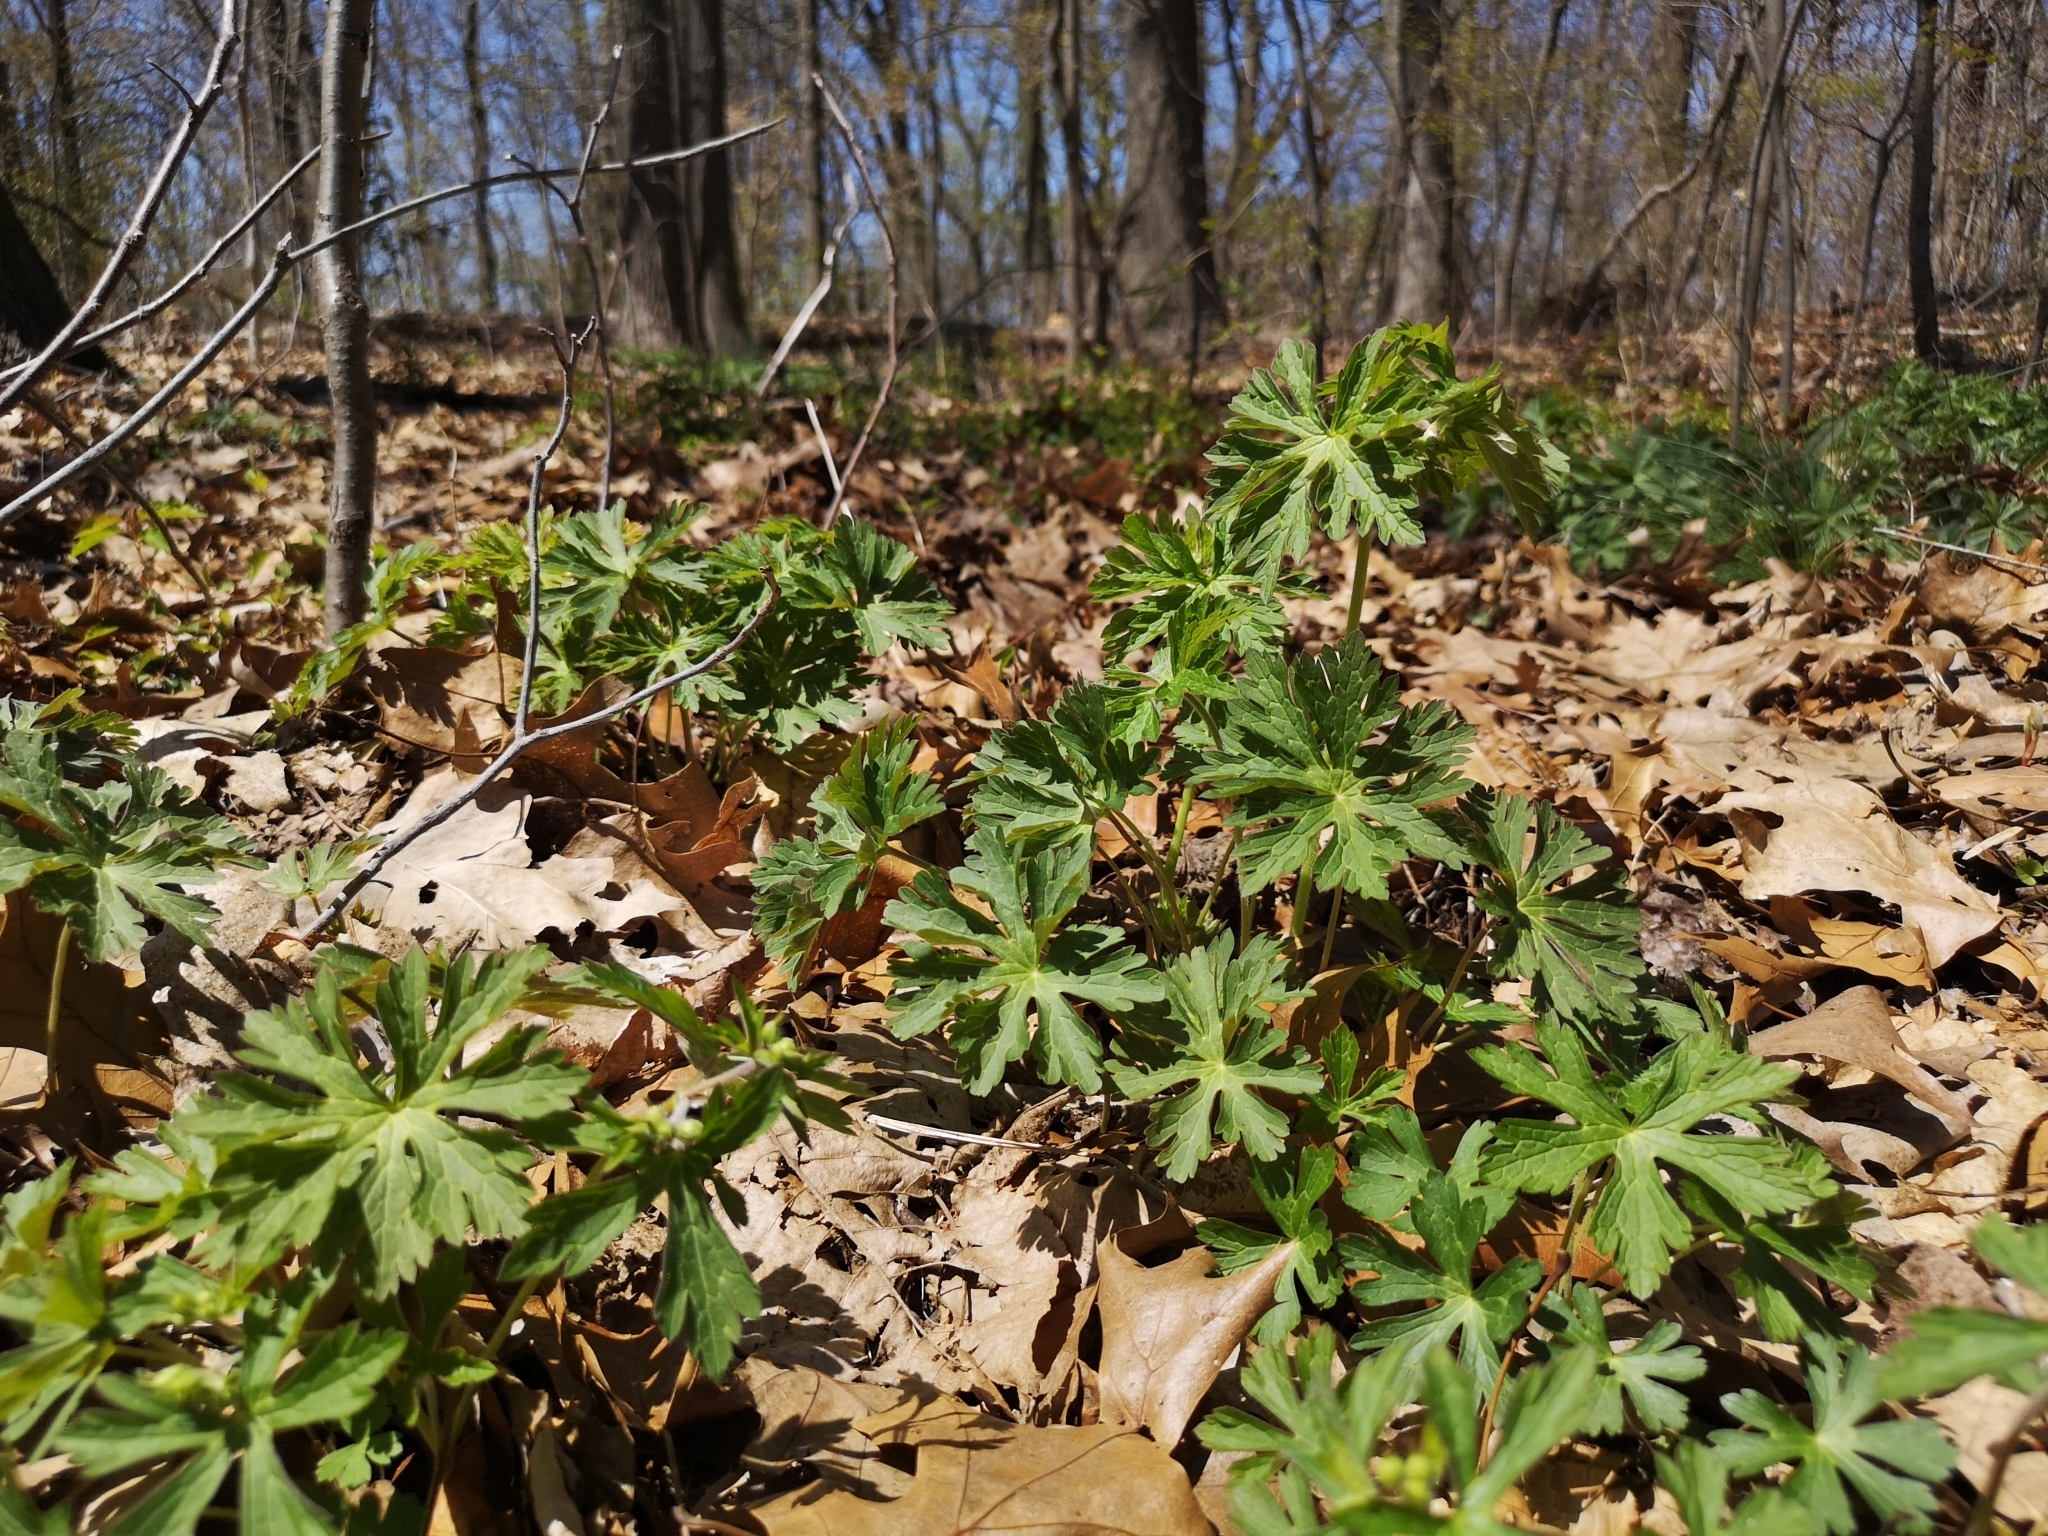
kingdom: Plantae
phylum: Tracheophyta
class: Magnoliopsida
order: Geraniales
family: Geraniaceae
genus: Geranium
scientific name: Geranium maculatum
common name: Spotted geranium
